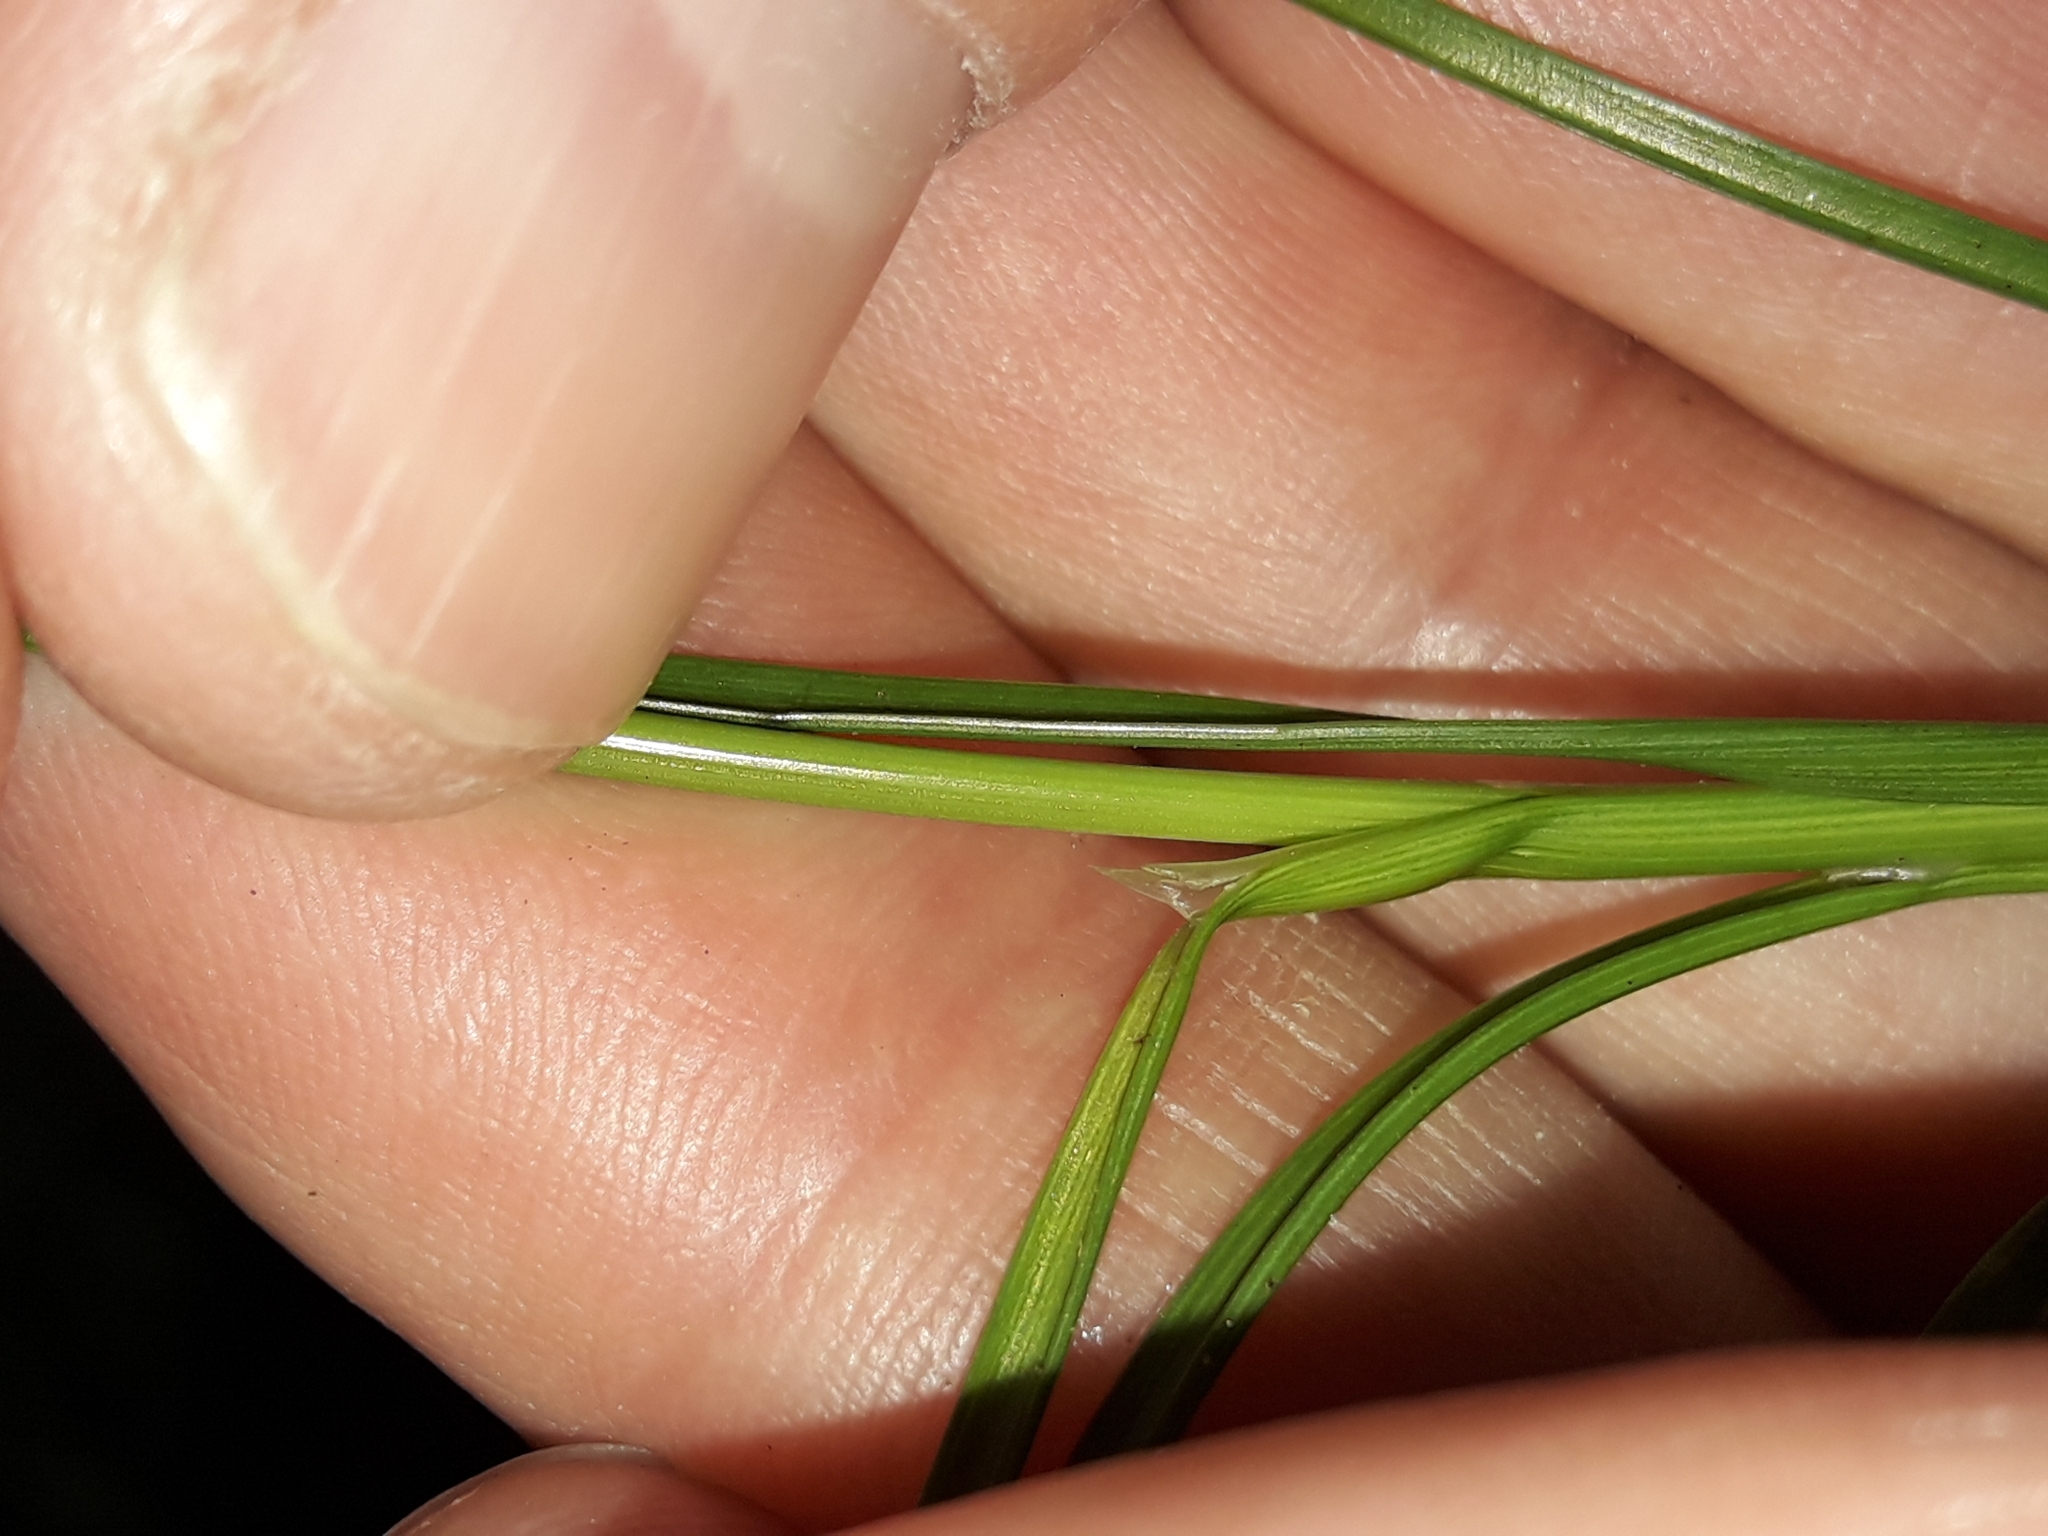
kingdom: Plantae
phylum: Tracheophyta
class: Liliopsida
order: Poales
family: Juncaceae
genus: Juncus
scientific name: Juncus tenuis
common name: Slender rush
